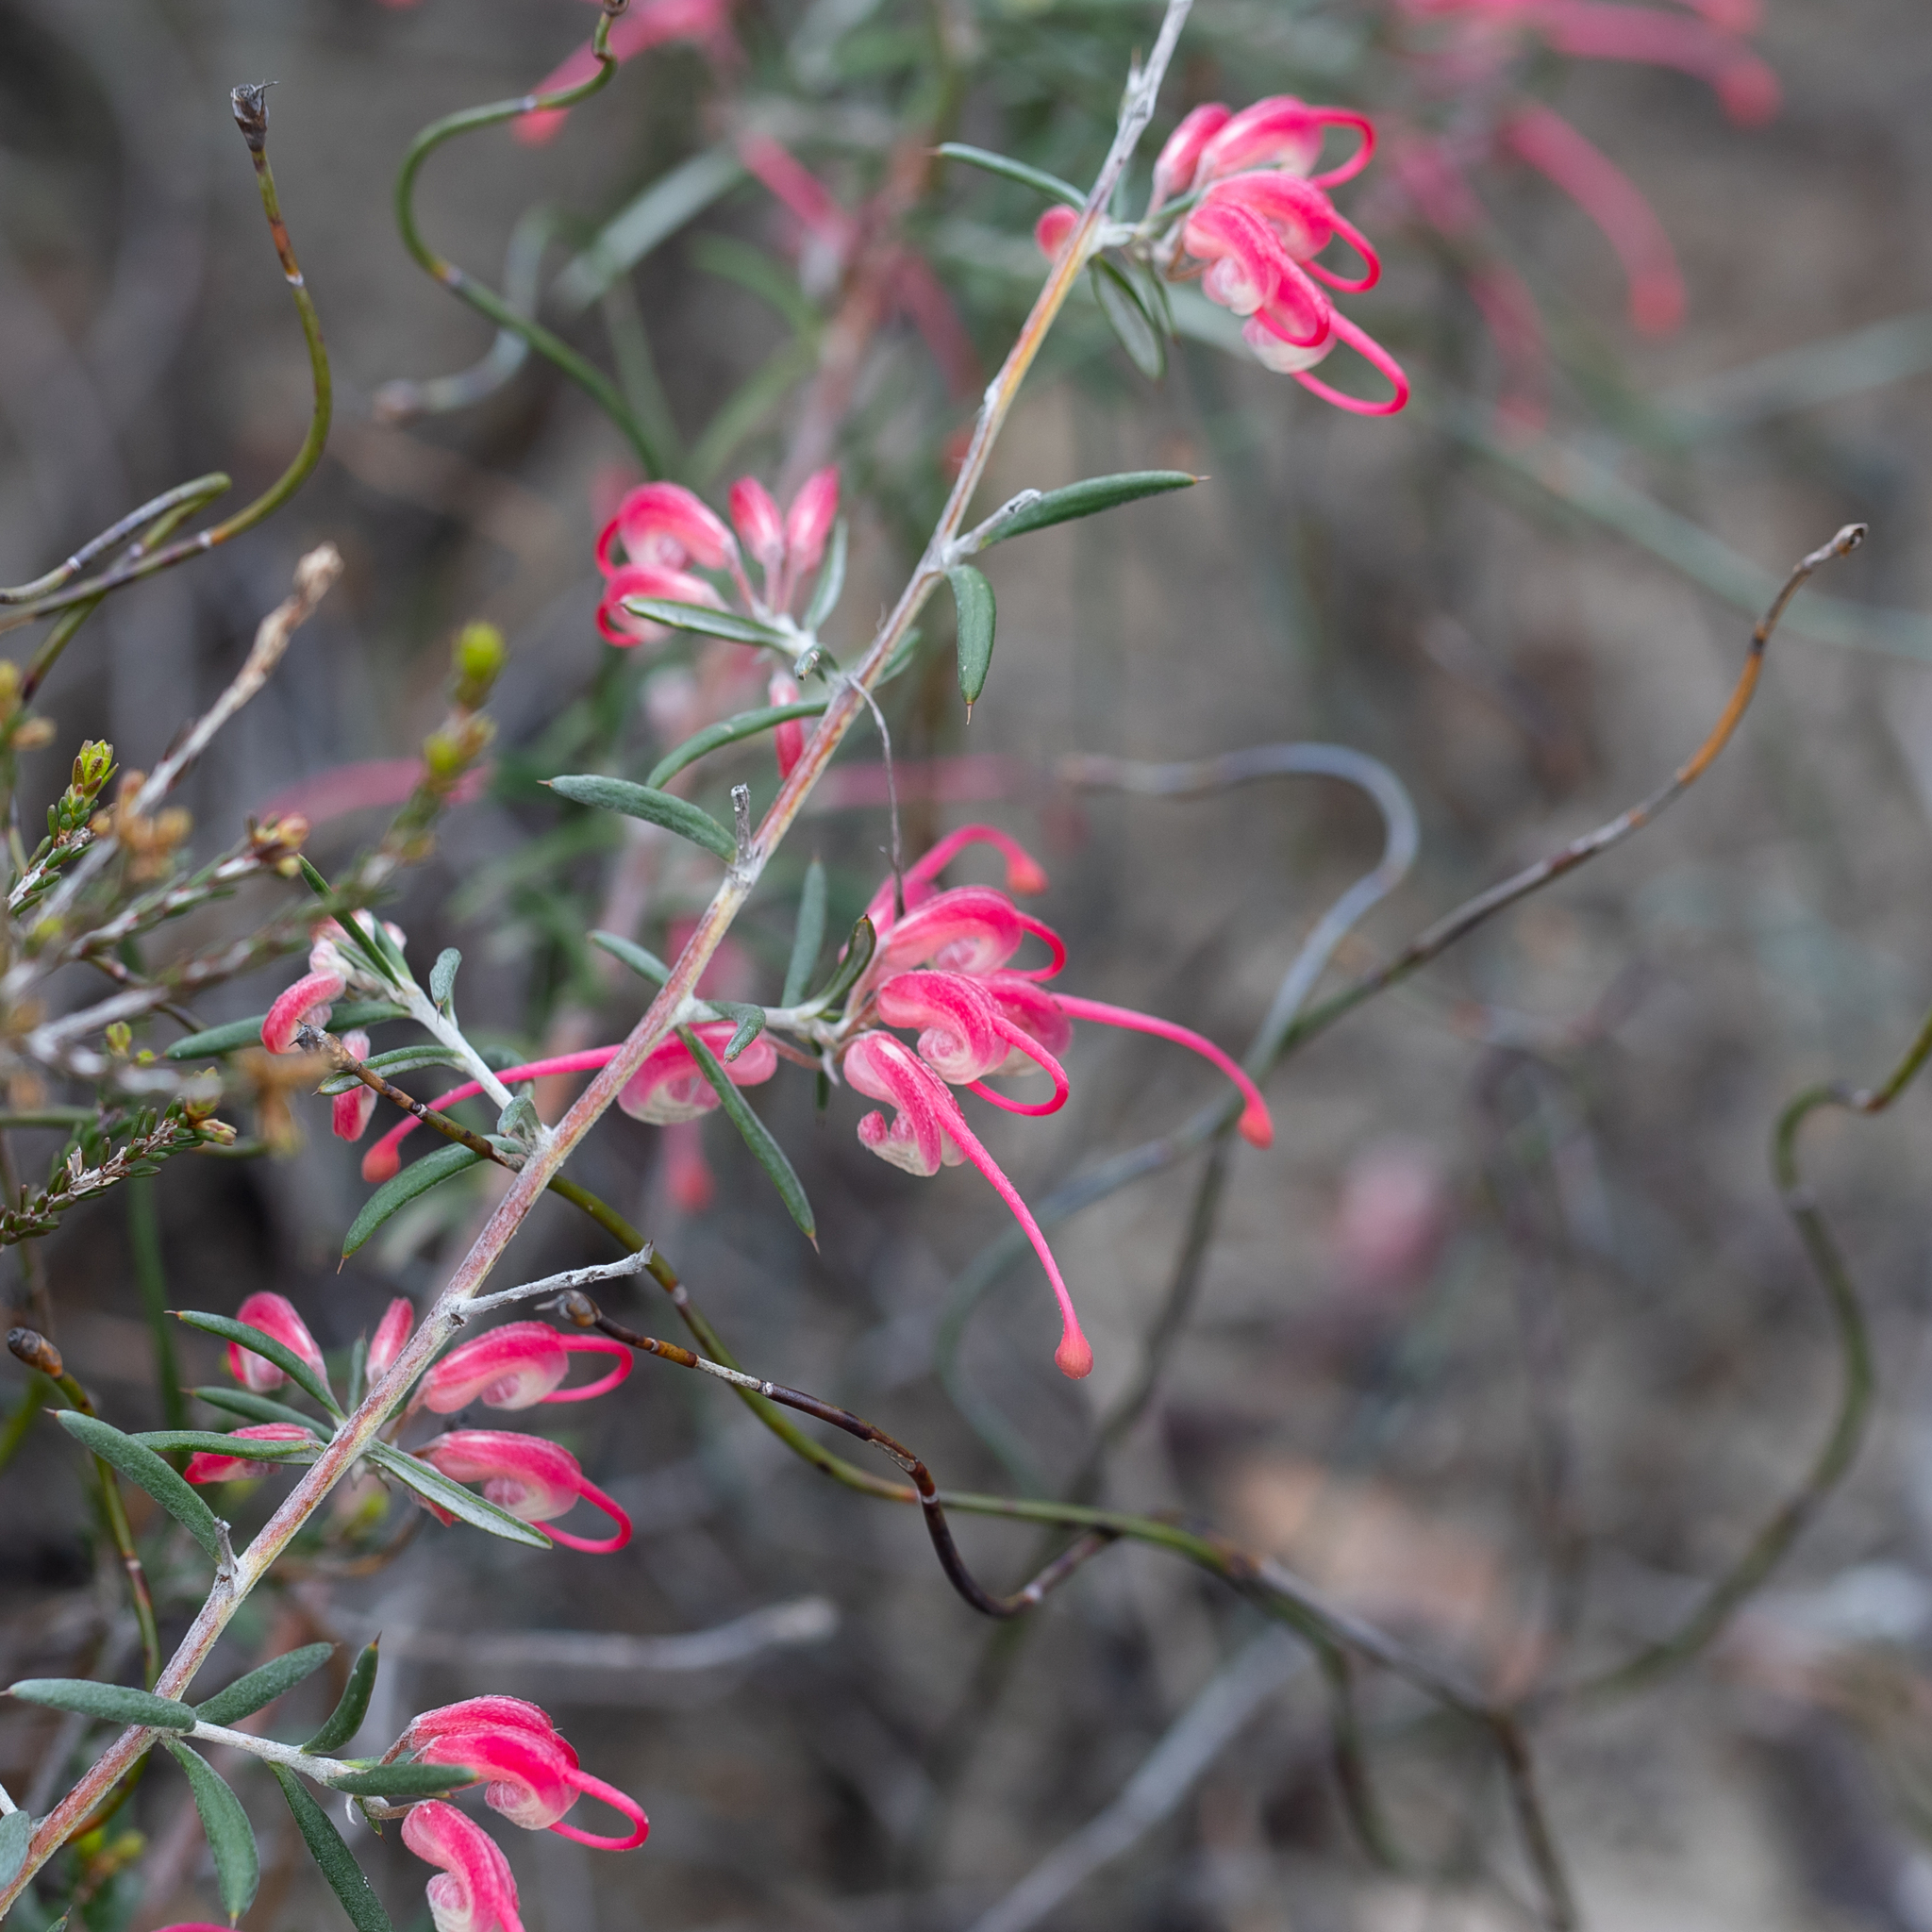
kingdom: Plantae
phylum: Tracheophyta
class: Magnoliopsida
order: Proteales
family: Proteaceae
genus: Grevillea
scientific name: Grevillea lavandulacea
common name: Lavender grevillea
